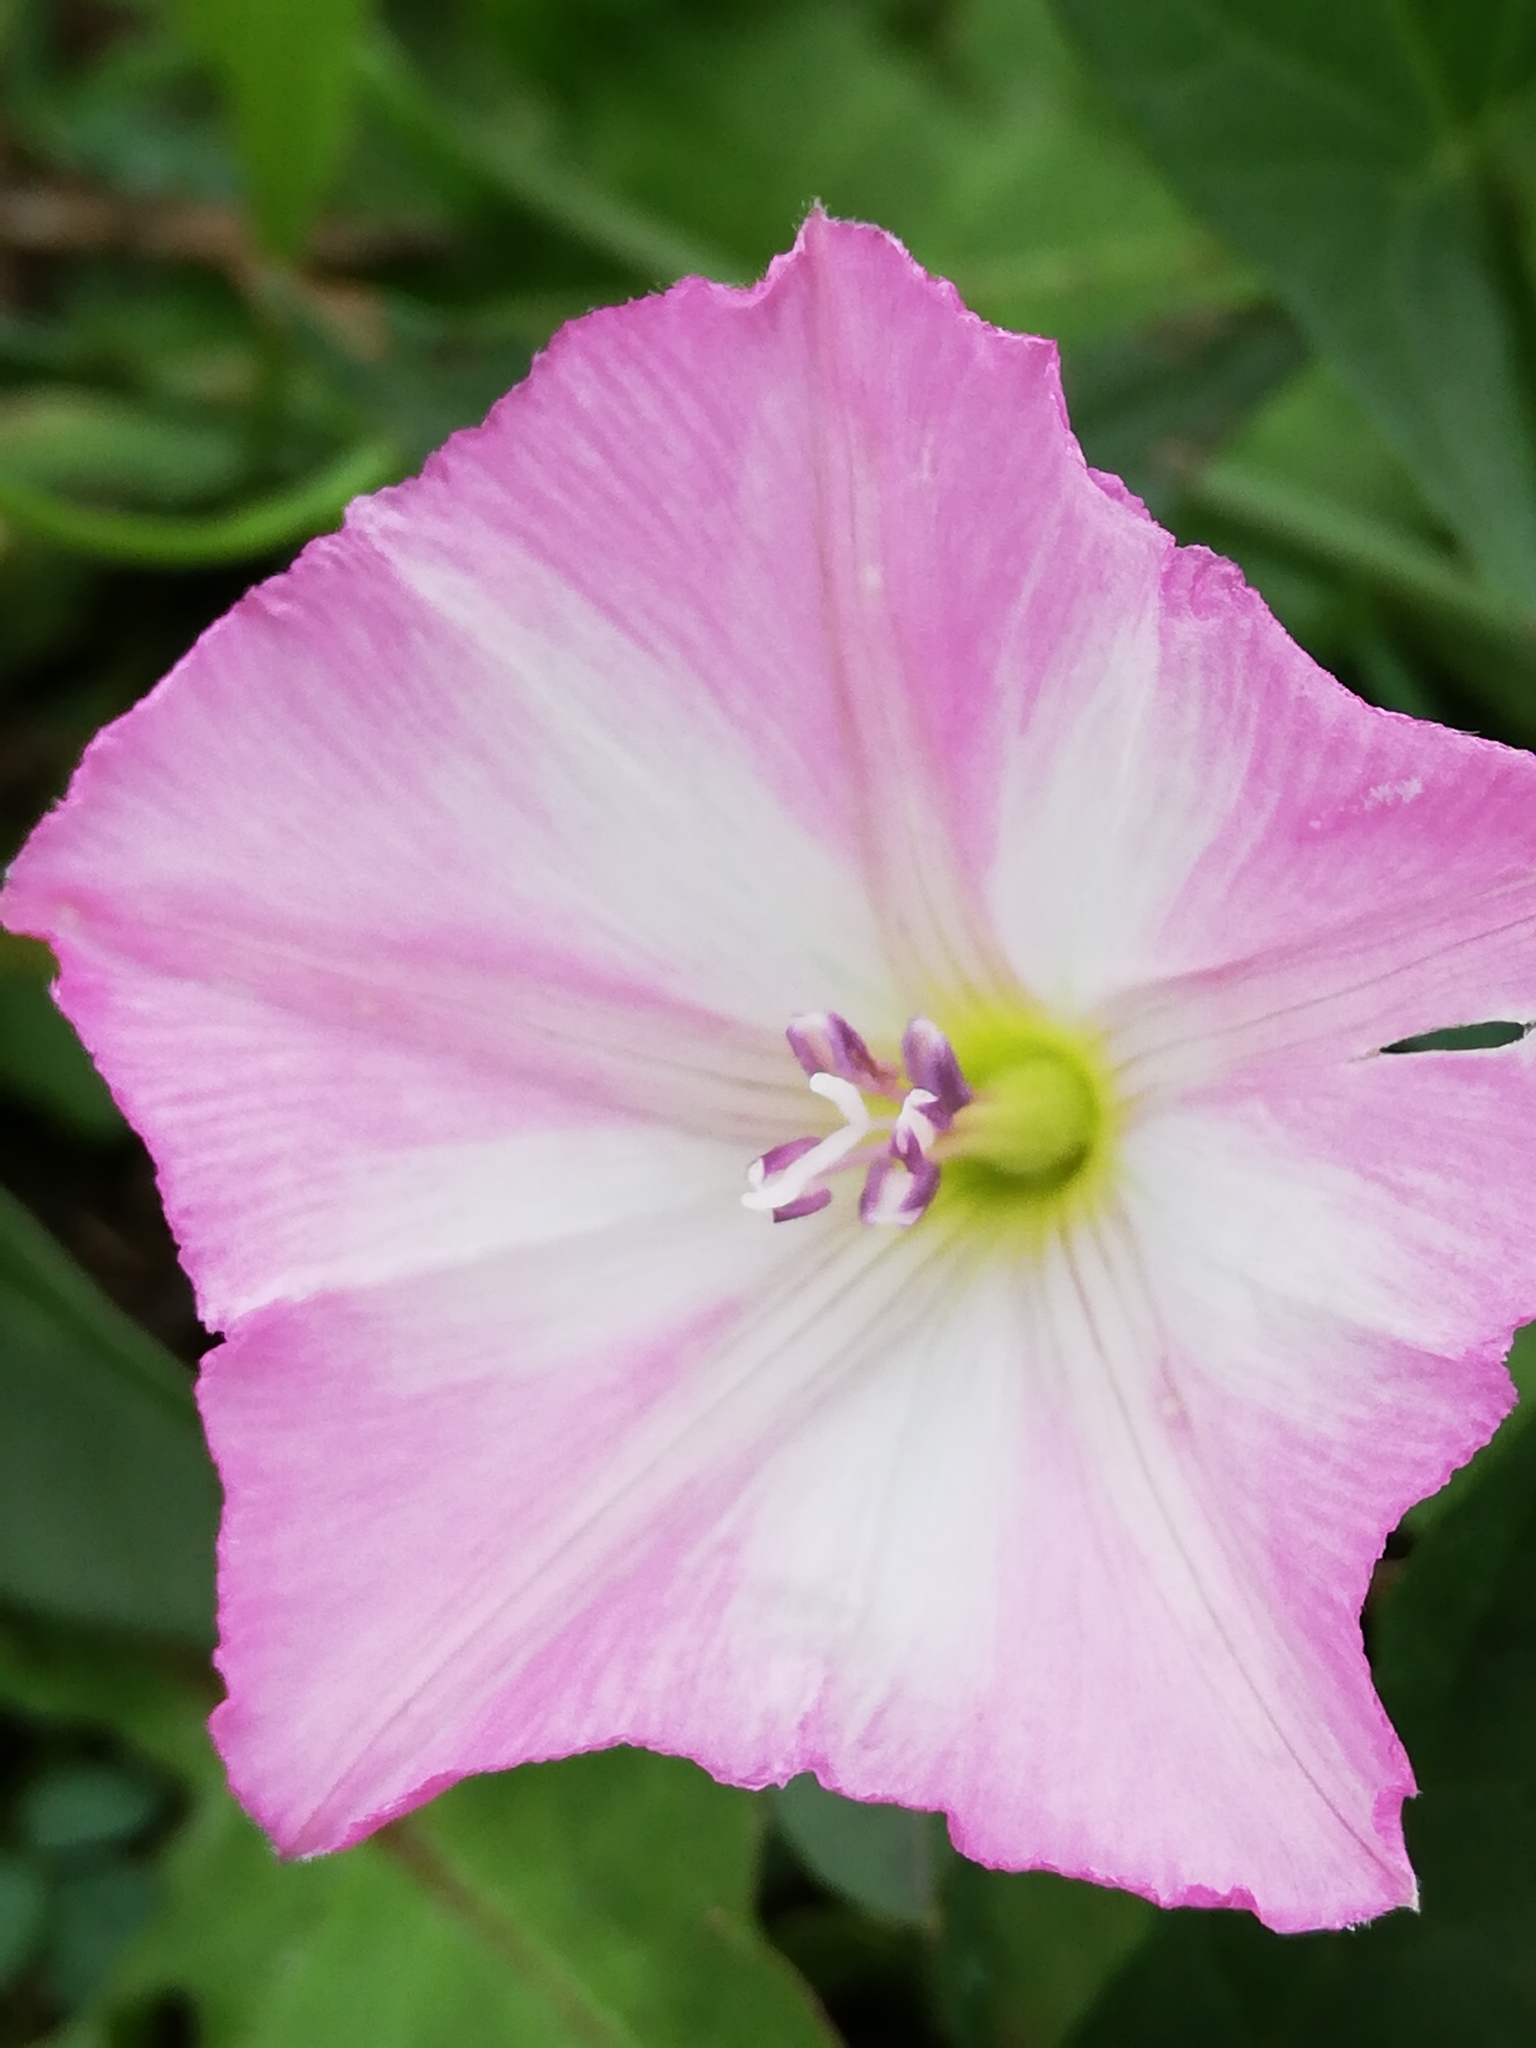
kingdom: Plantae
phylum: Tracheophyta
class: Magnoliopsida
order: Solanales
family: Convolvulaceae
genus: Convolvulus
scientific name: Convolvulus arvensis
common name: Field bindweed
